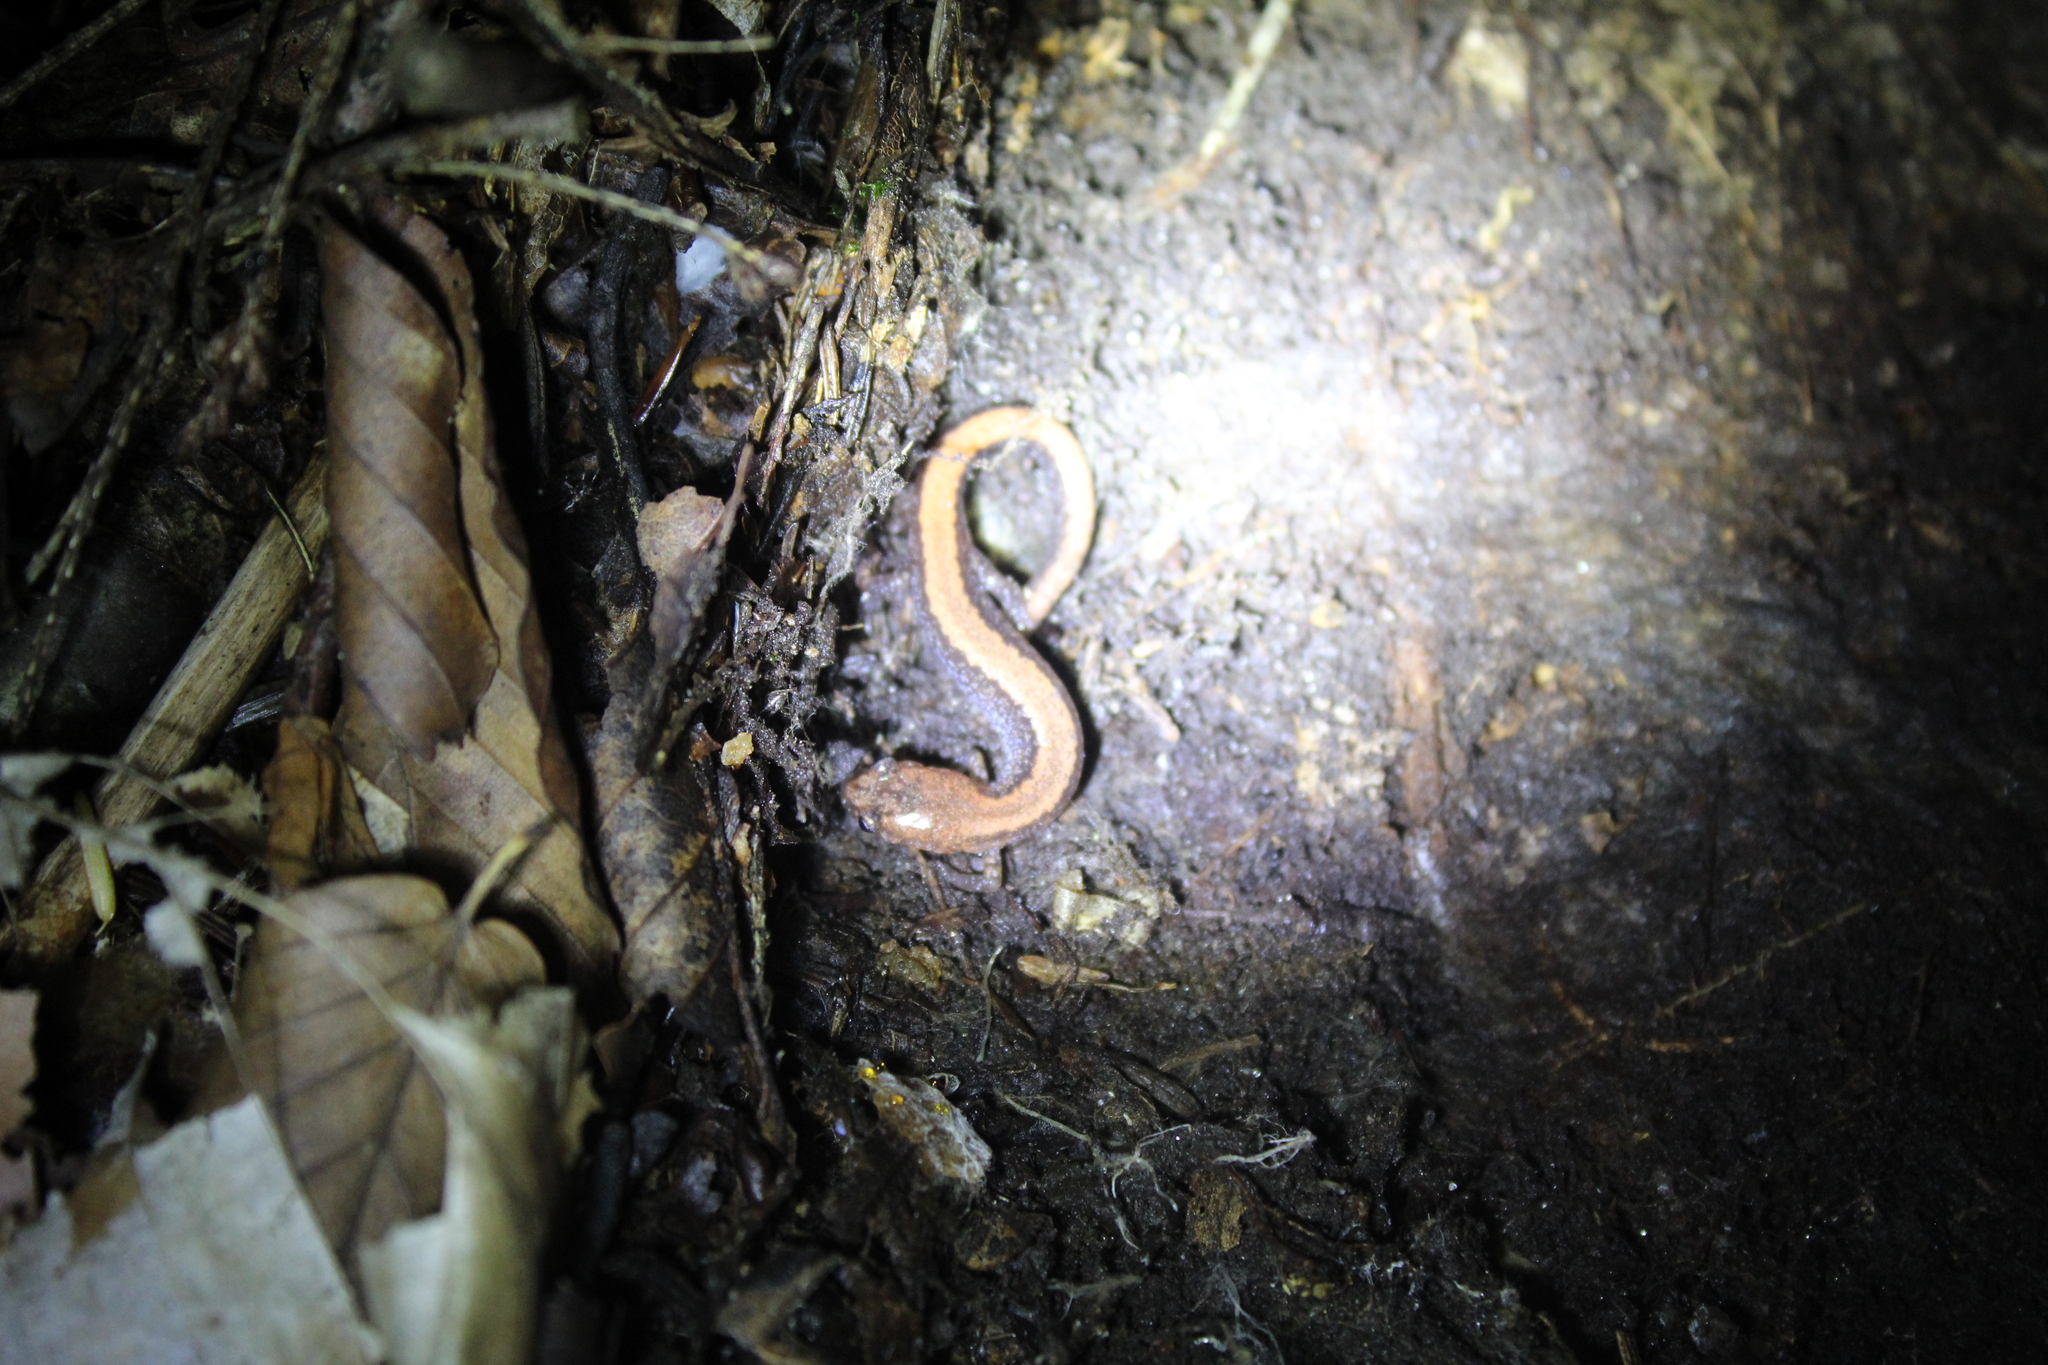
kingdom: Animalia
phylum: Chordata
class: Amphibia
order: Caudata
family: Plethodontidae
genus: Plethodon
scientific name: Plethodon cinereus
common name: Redback salamander
